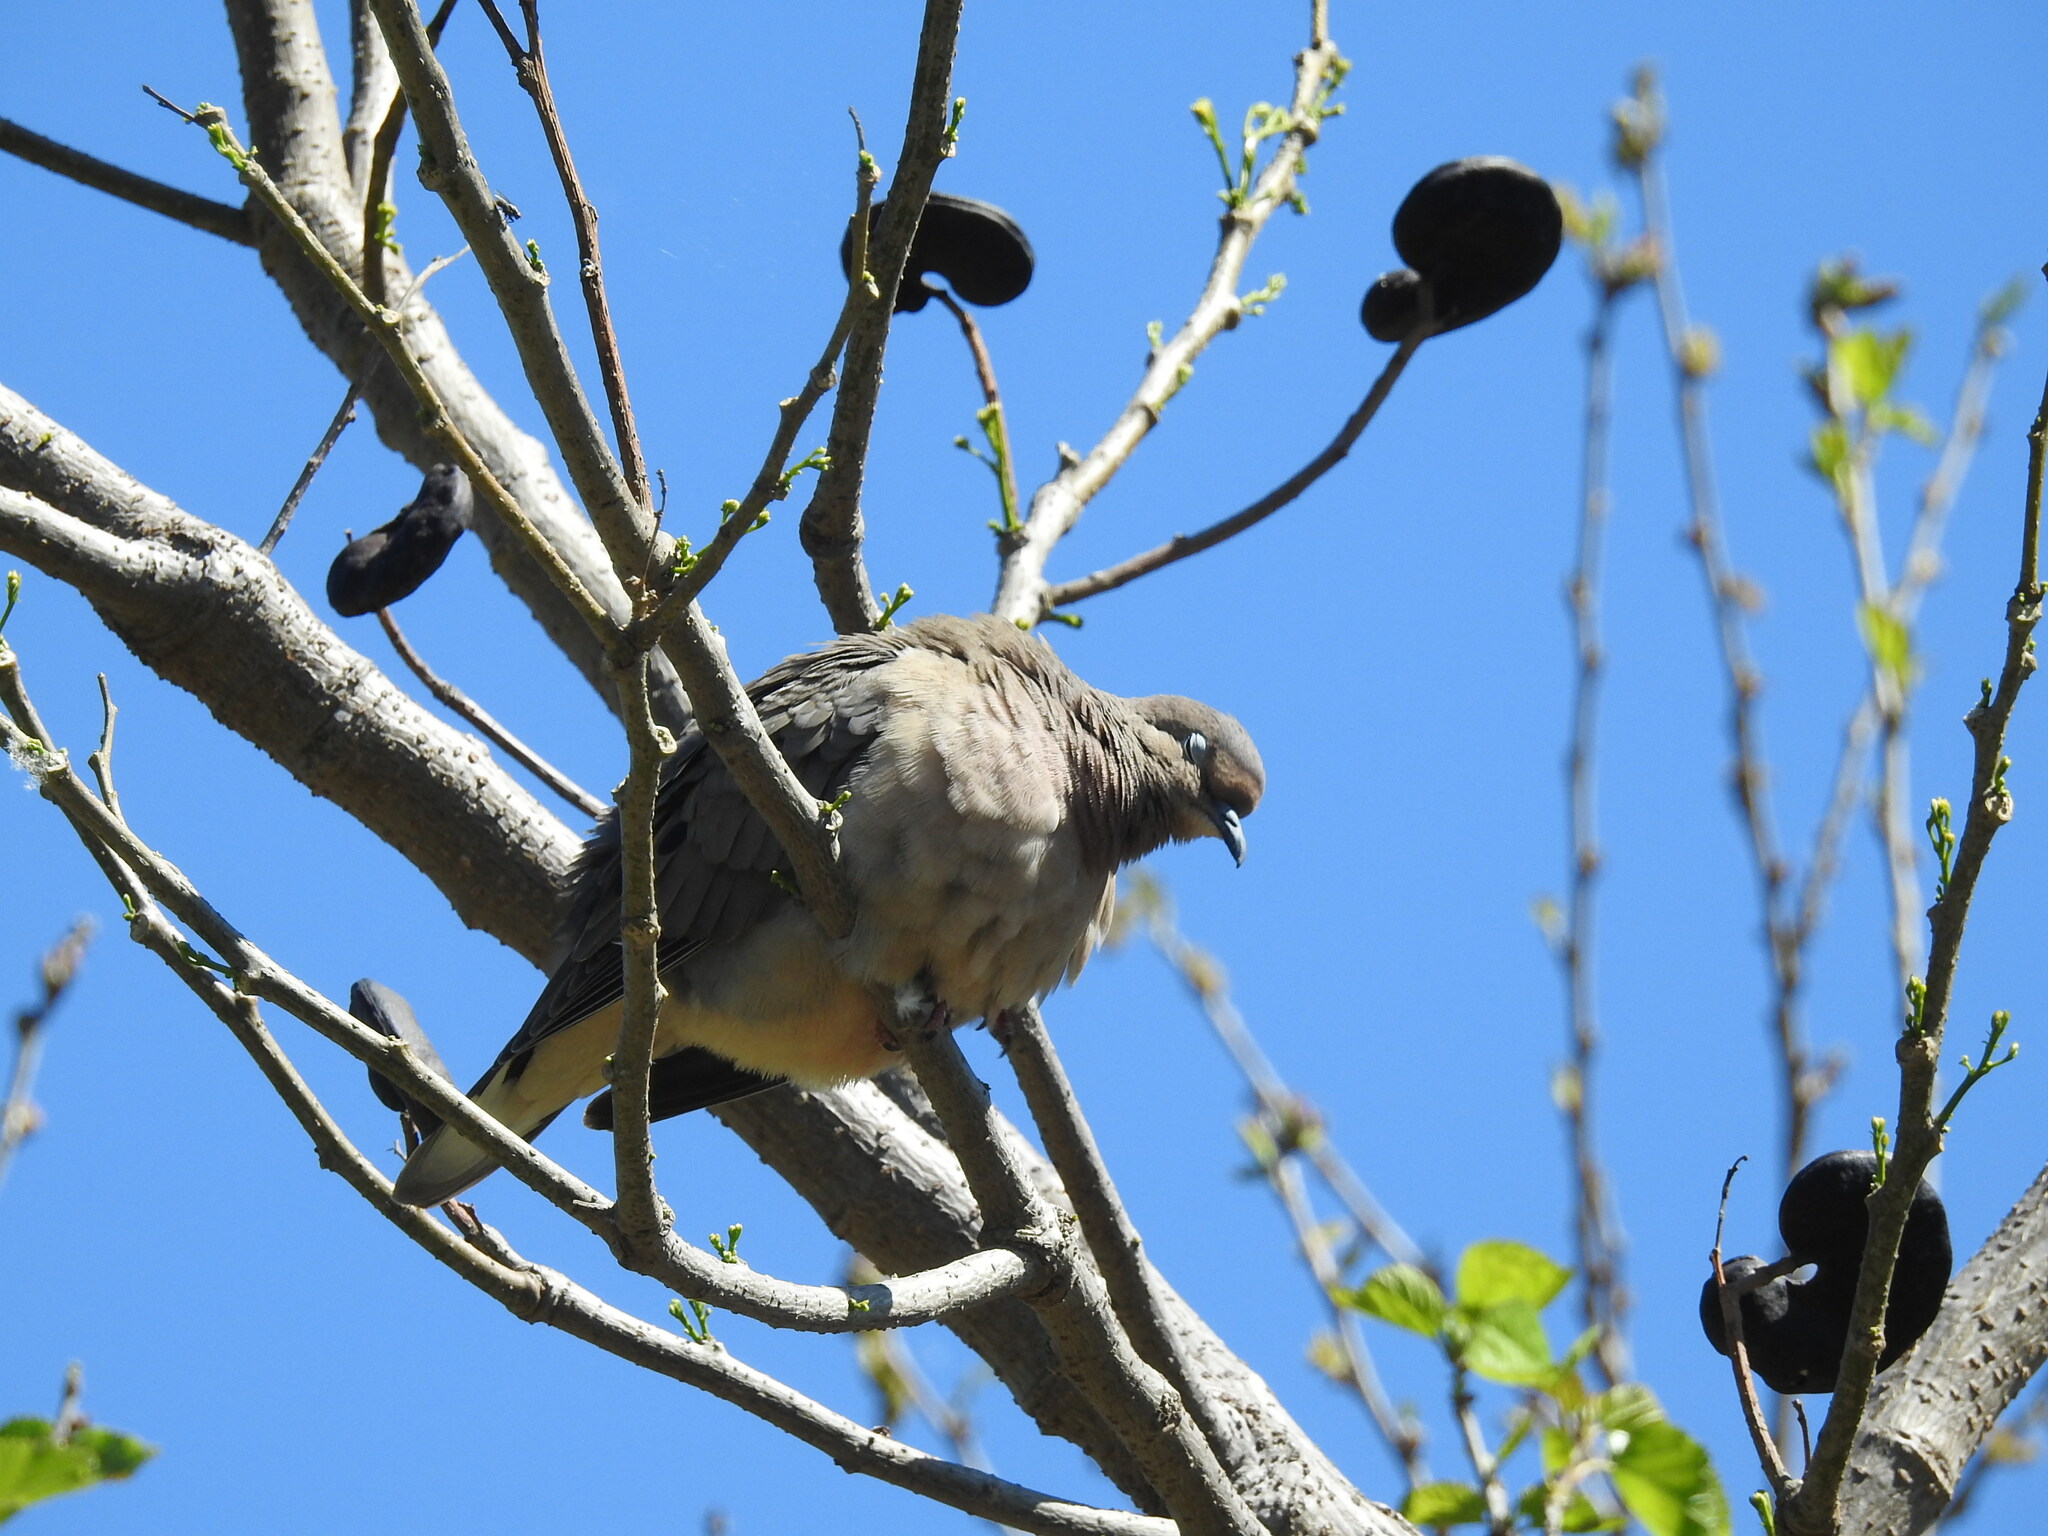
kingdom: Animalia
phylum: Chordata
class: Aves
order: Columbiformes
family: Columbidae
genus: Zenaida
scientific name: Zenaida auriculata
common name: Eared dove
